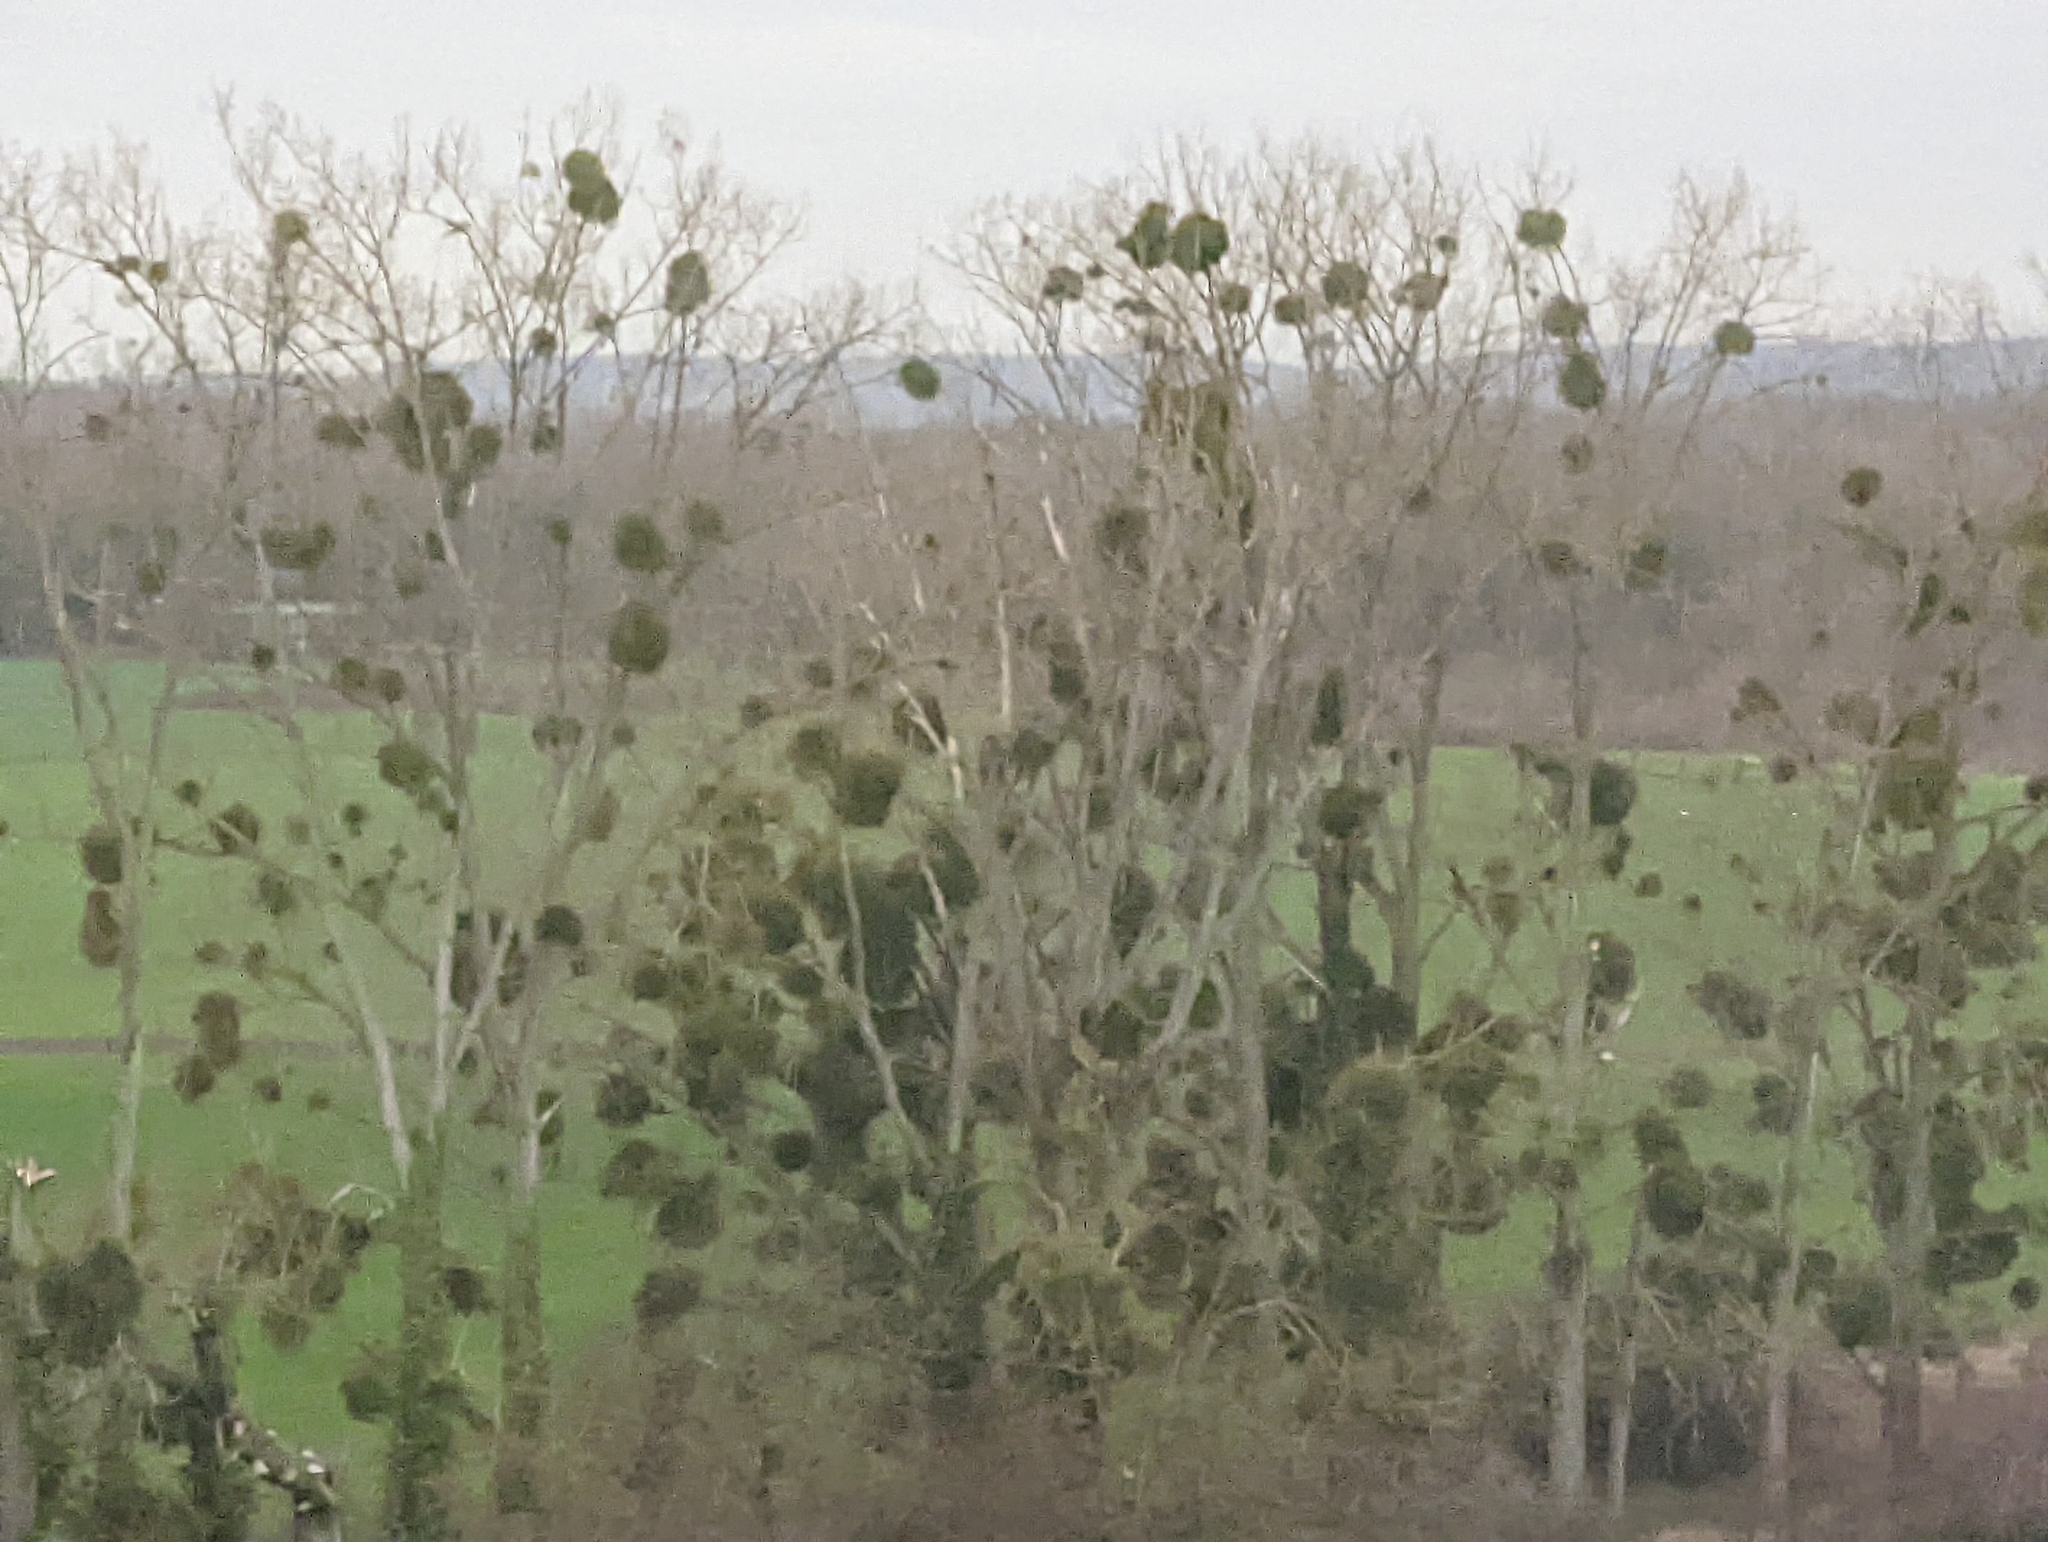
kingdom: Plantae
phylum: Tracheophyta
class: Magnoliopsida
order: Santalales
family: Viscaceae
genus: Viscum
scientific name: Viscum album
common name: Mistletoe
